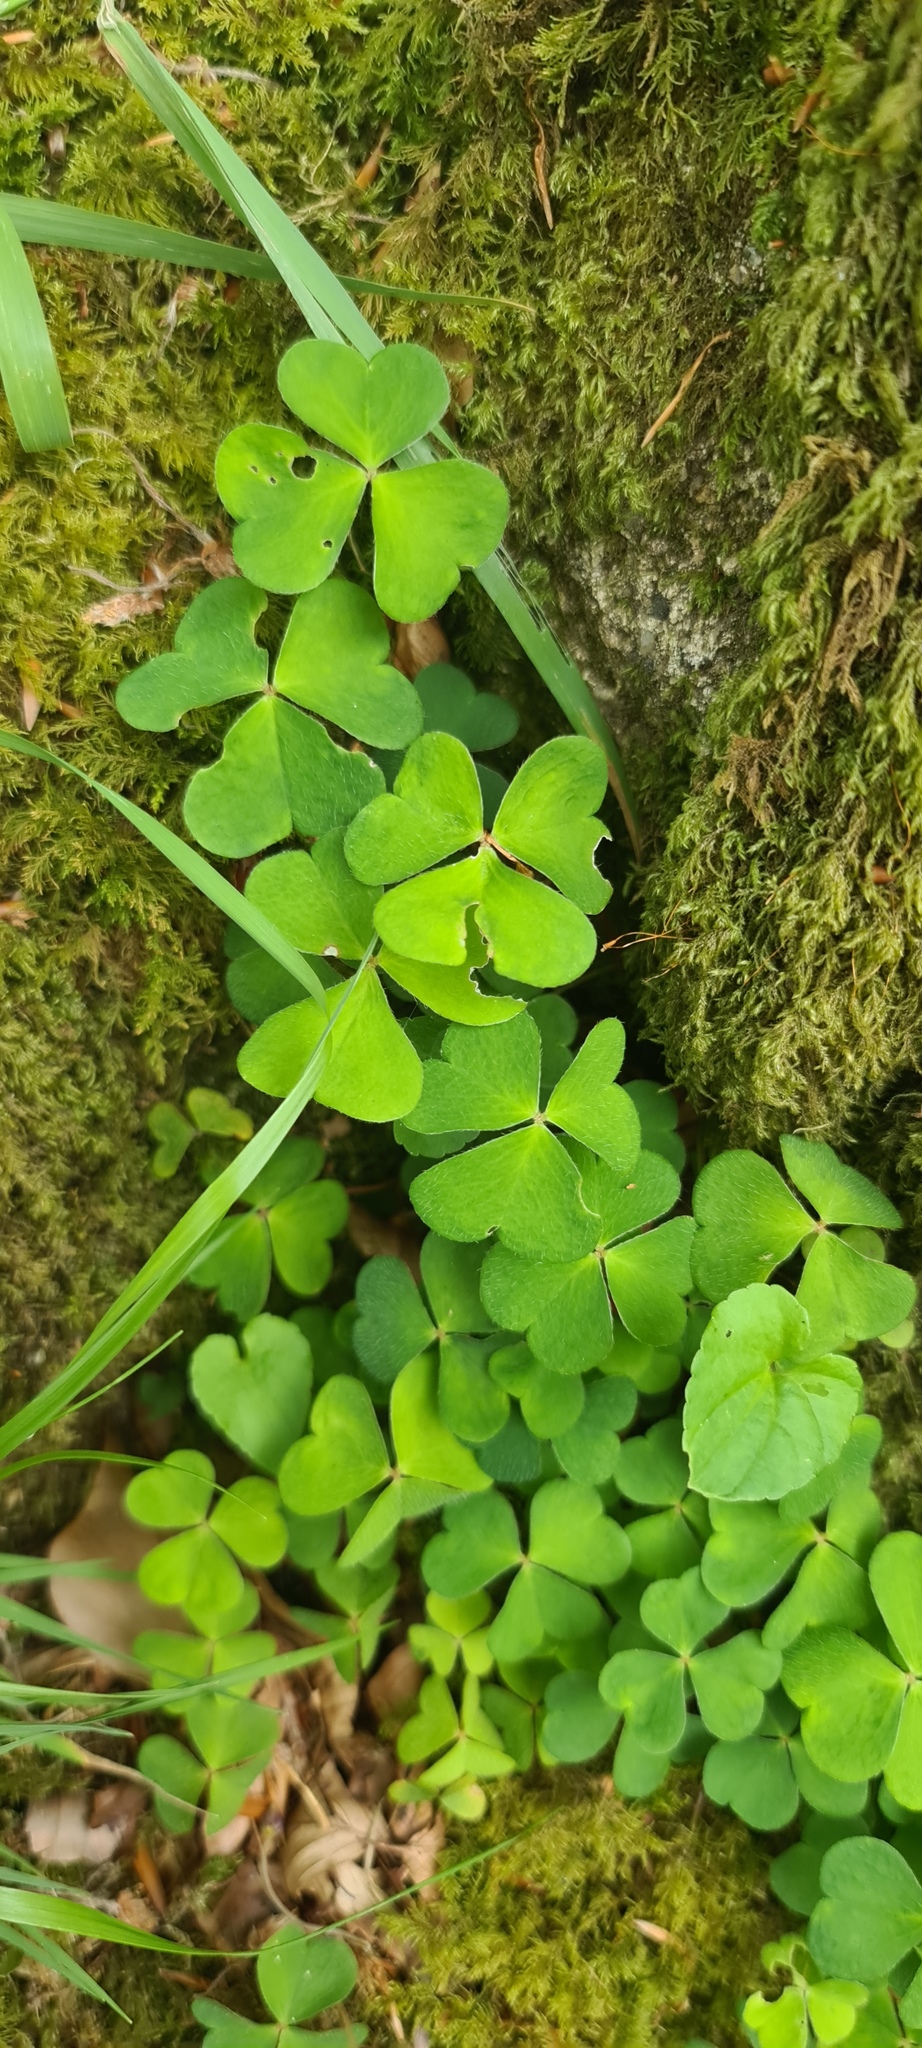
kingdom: Plantae
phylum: Tracheophyta
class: Magnoliopsida
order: Oxalidales
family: Oxalidaceae
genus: Oxalis
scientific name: Oxalis acetosella
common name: Wood-sorrel
